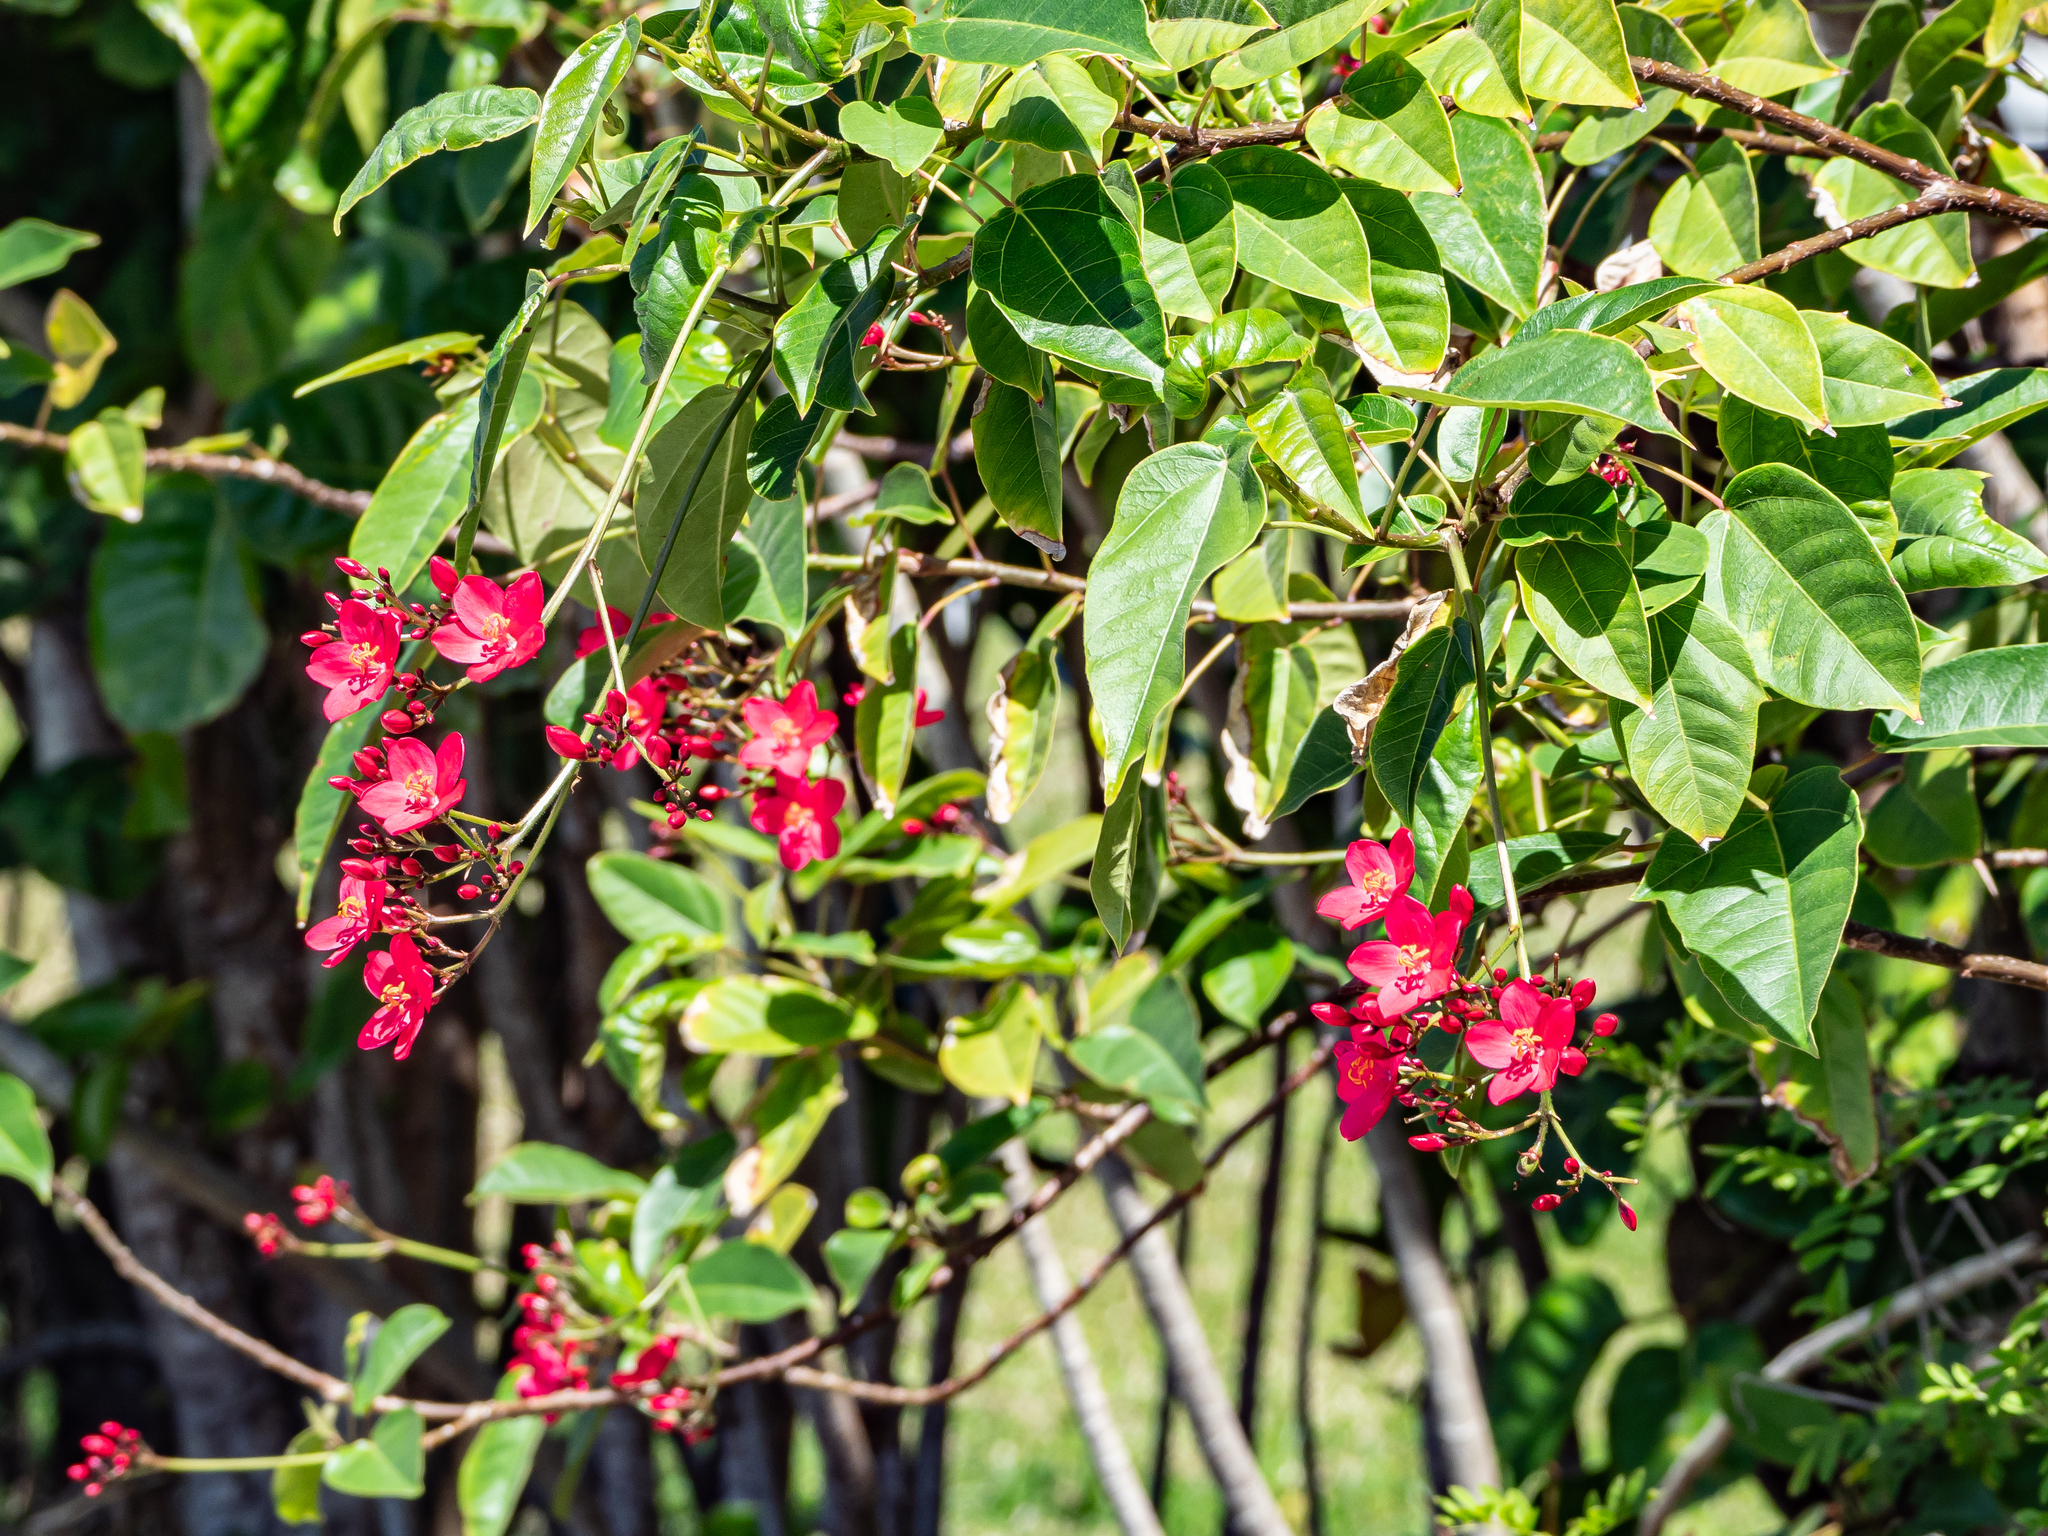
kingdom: Plantae
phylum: Tracheophyta
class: Magnoliopsida
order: Malpighiales
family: Euphorbiaceae
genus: Jatropha
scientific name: Jatropha integerrima
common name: Peregrina
